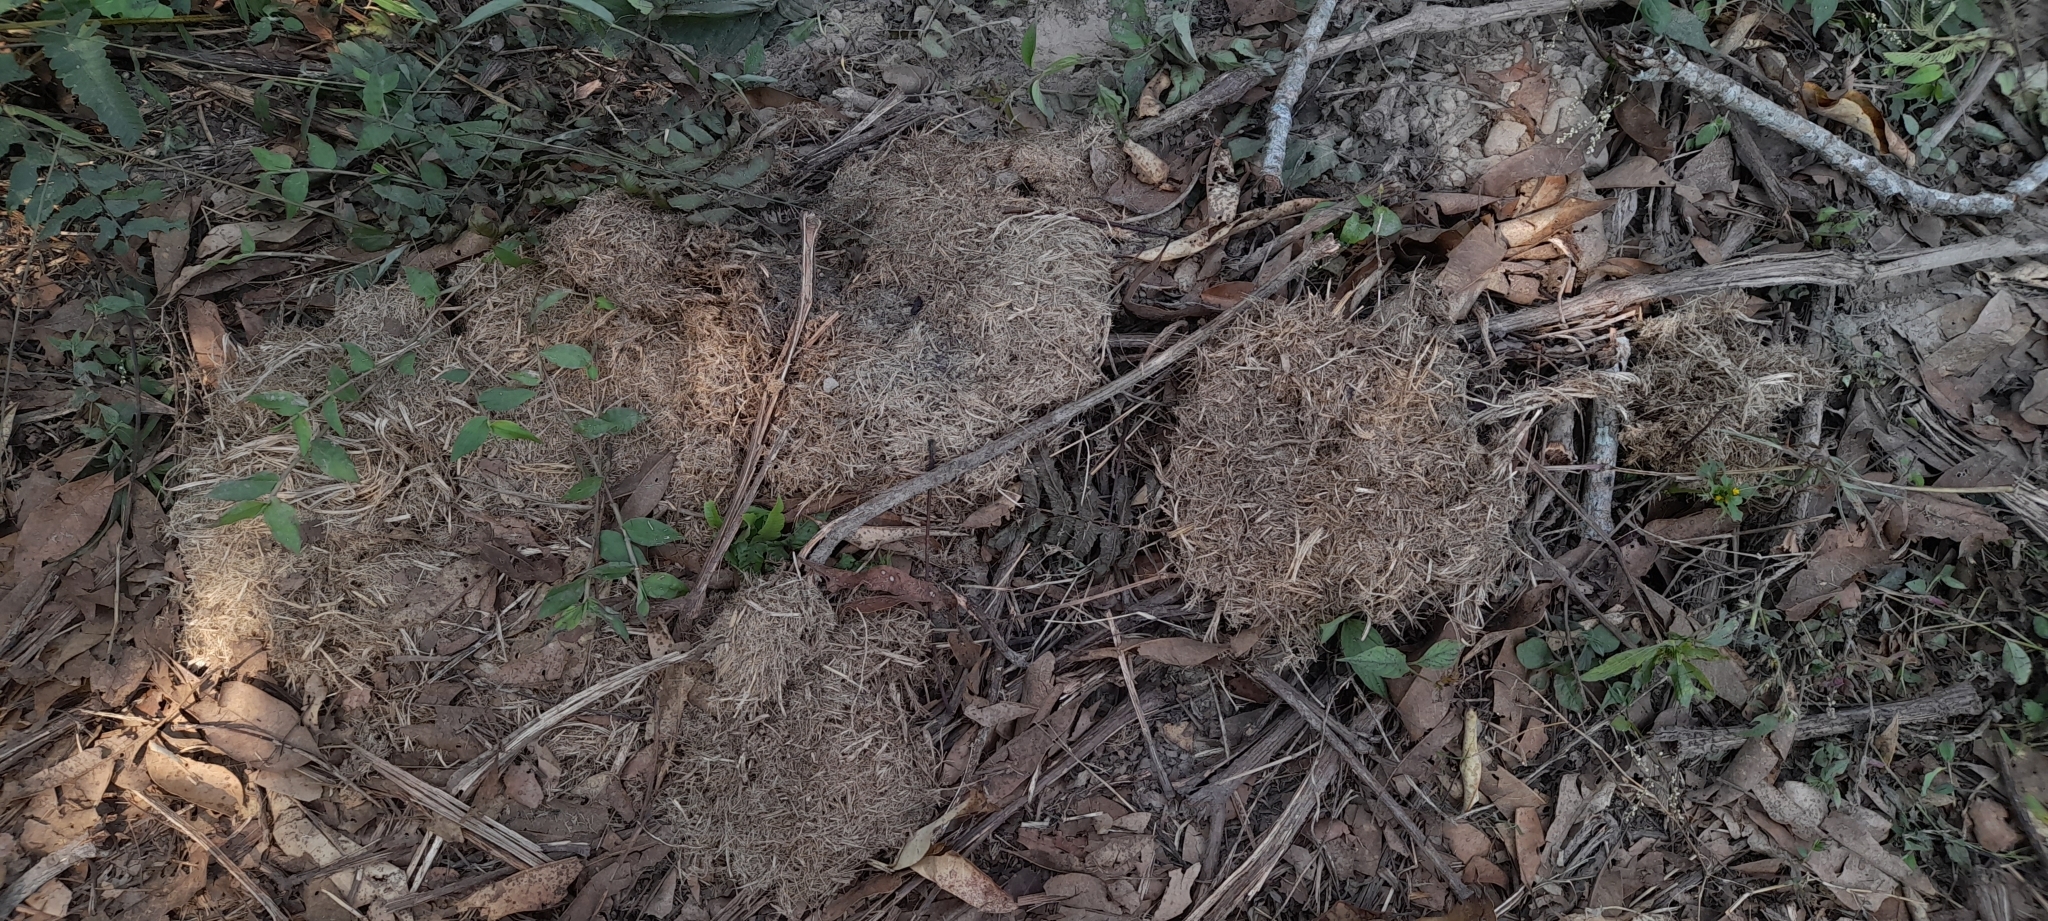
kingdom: Animalia
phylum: Chordata
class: Mammalia
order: Proboscidea
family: Elephantidae
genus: Elephas
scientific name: Elephas maximus
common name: Asian elephant
